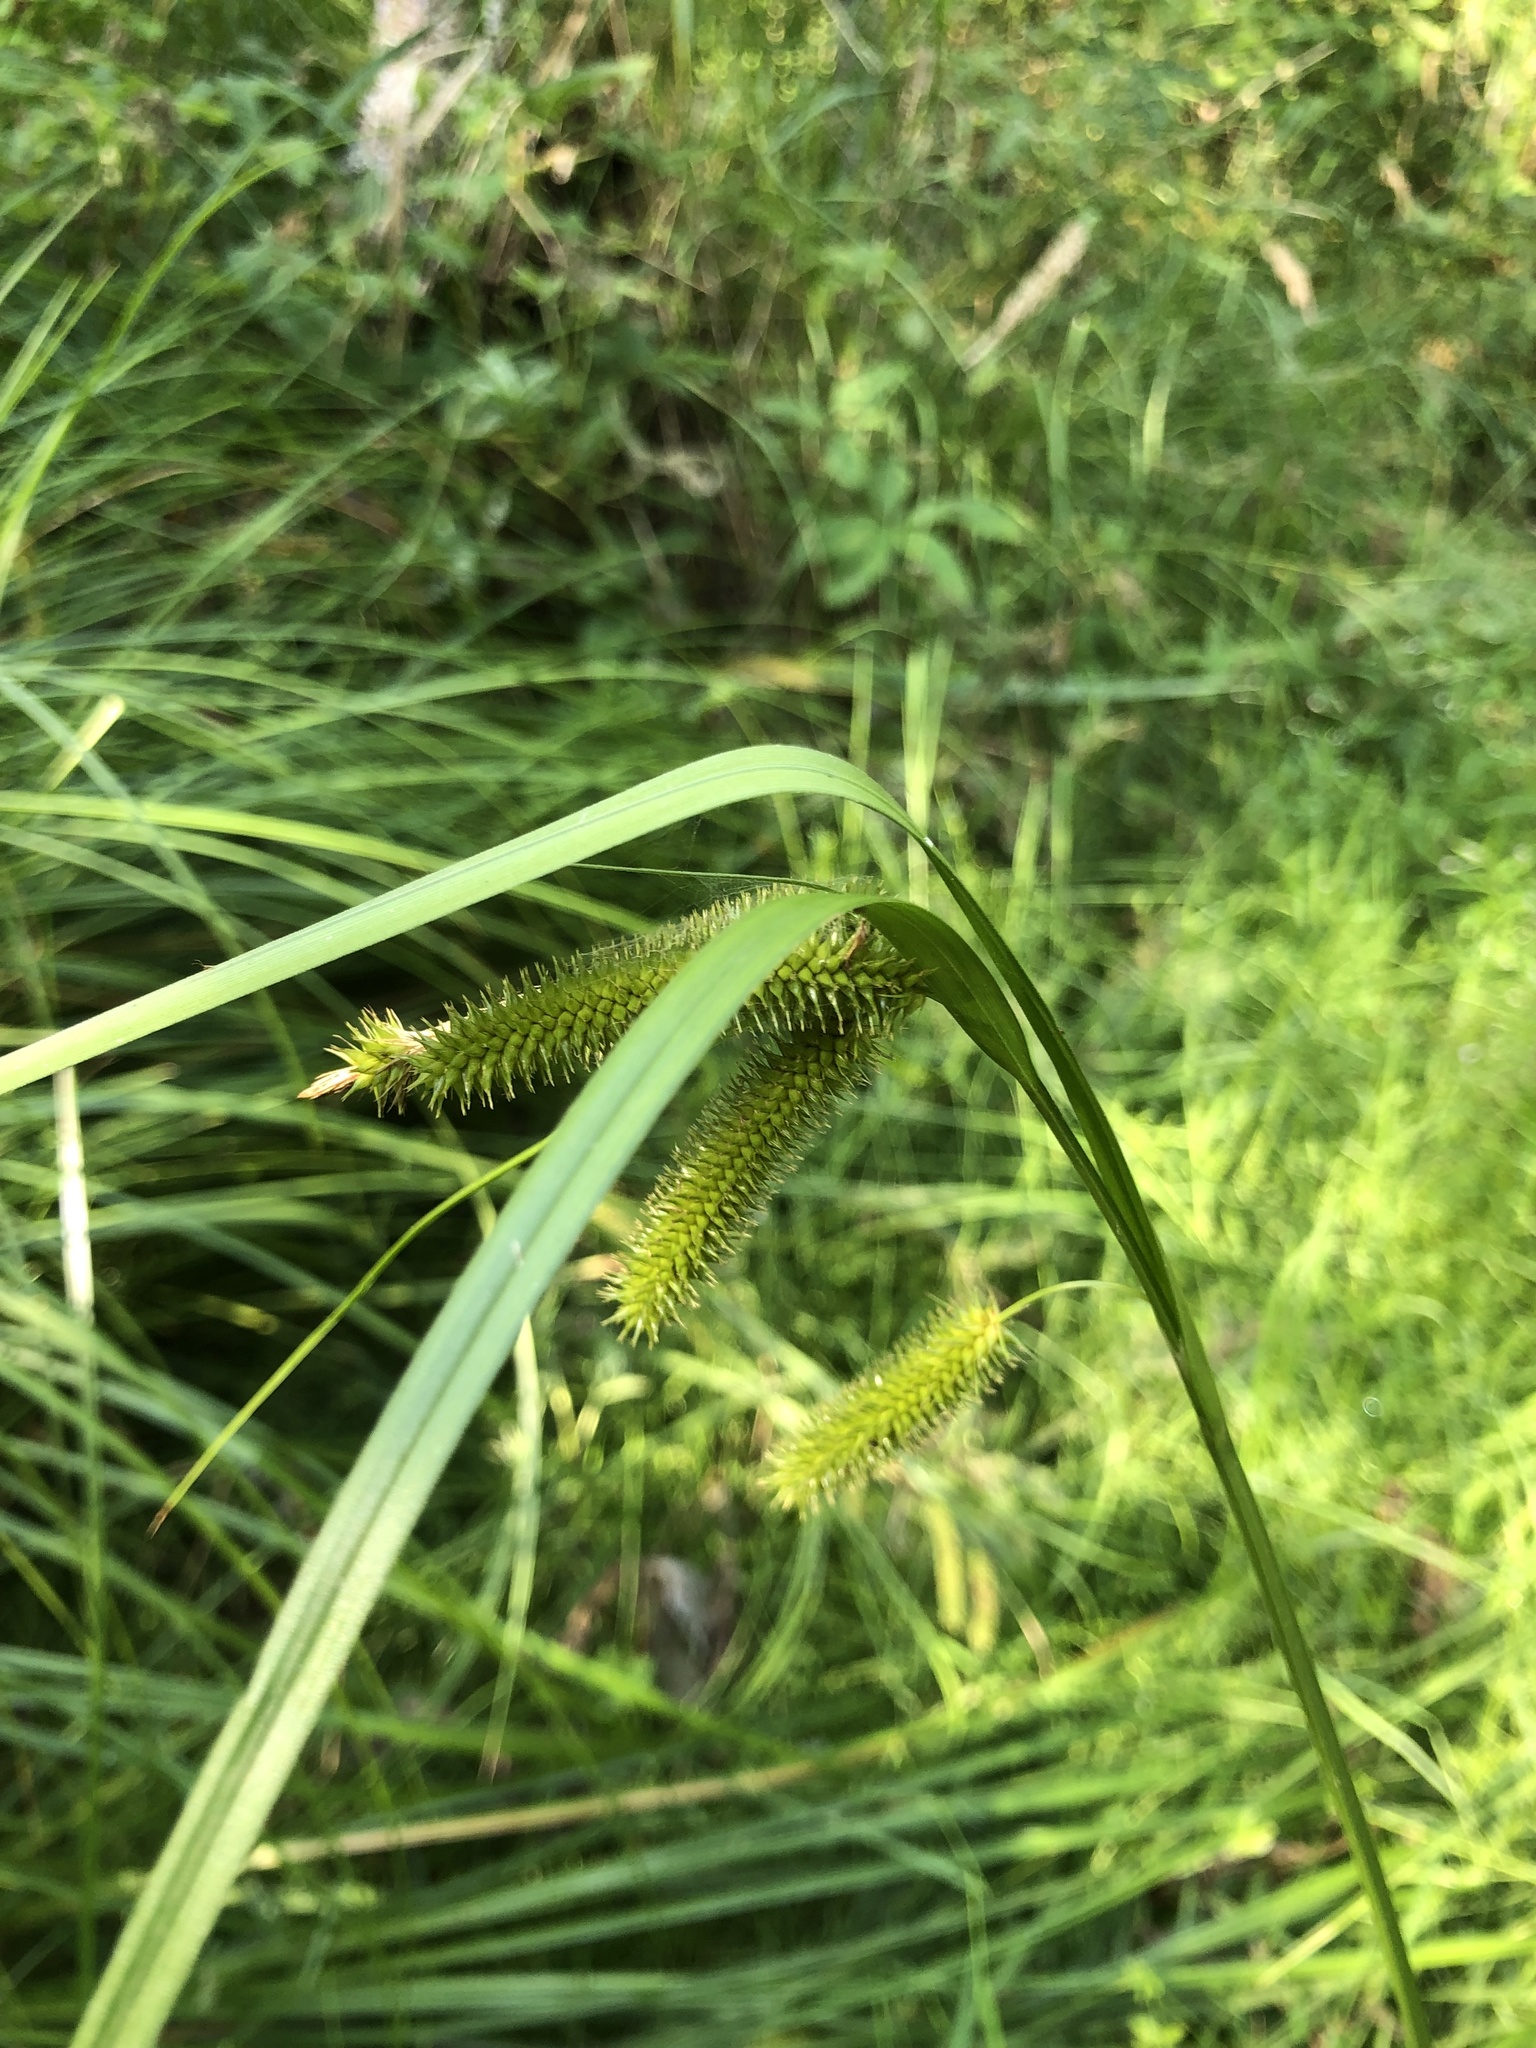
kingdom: Plantae
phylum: Tracheophyta
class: Liliopsida
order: Poales
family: Cyperaceae
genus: Carex
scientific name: Carex pseudocyperus
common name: Cyperus sedge
